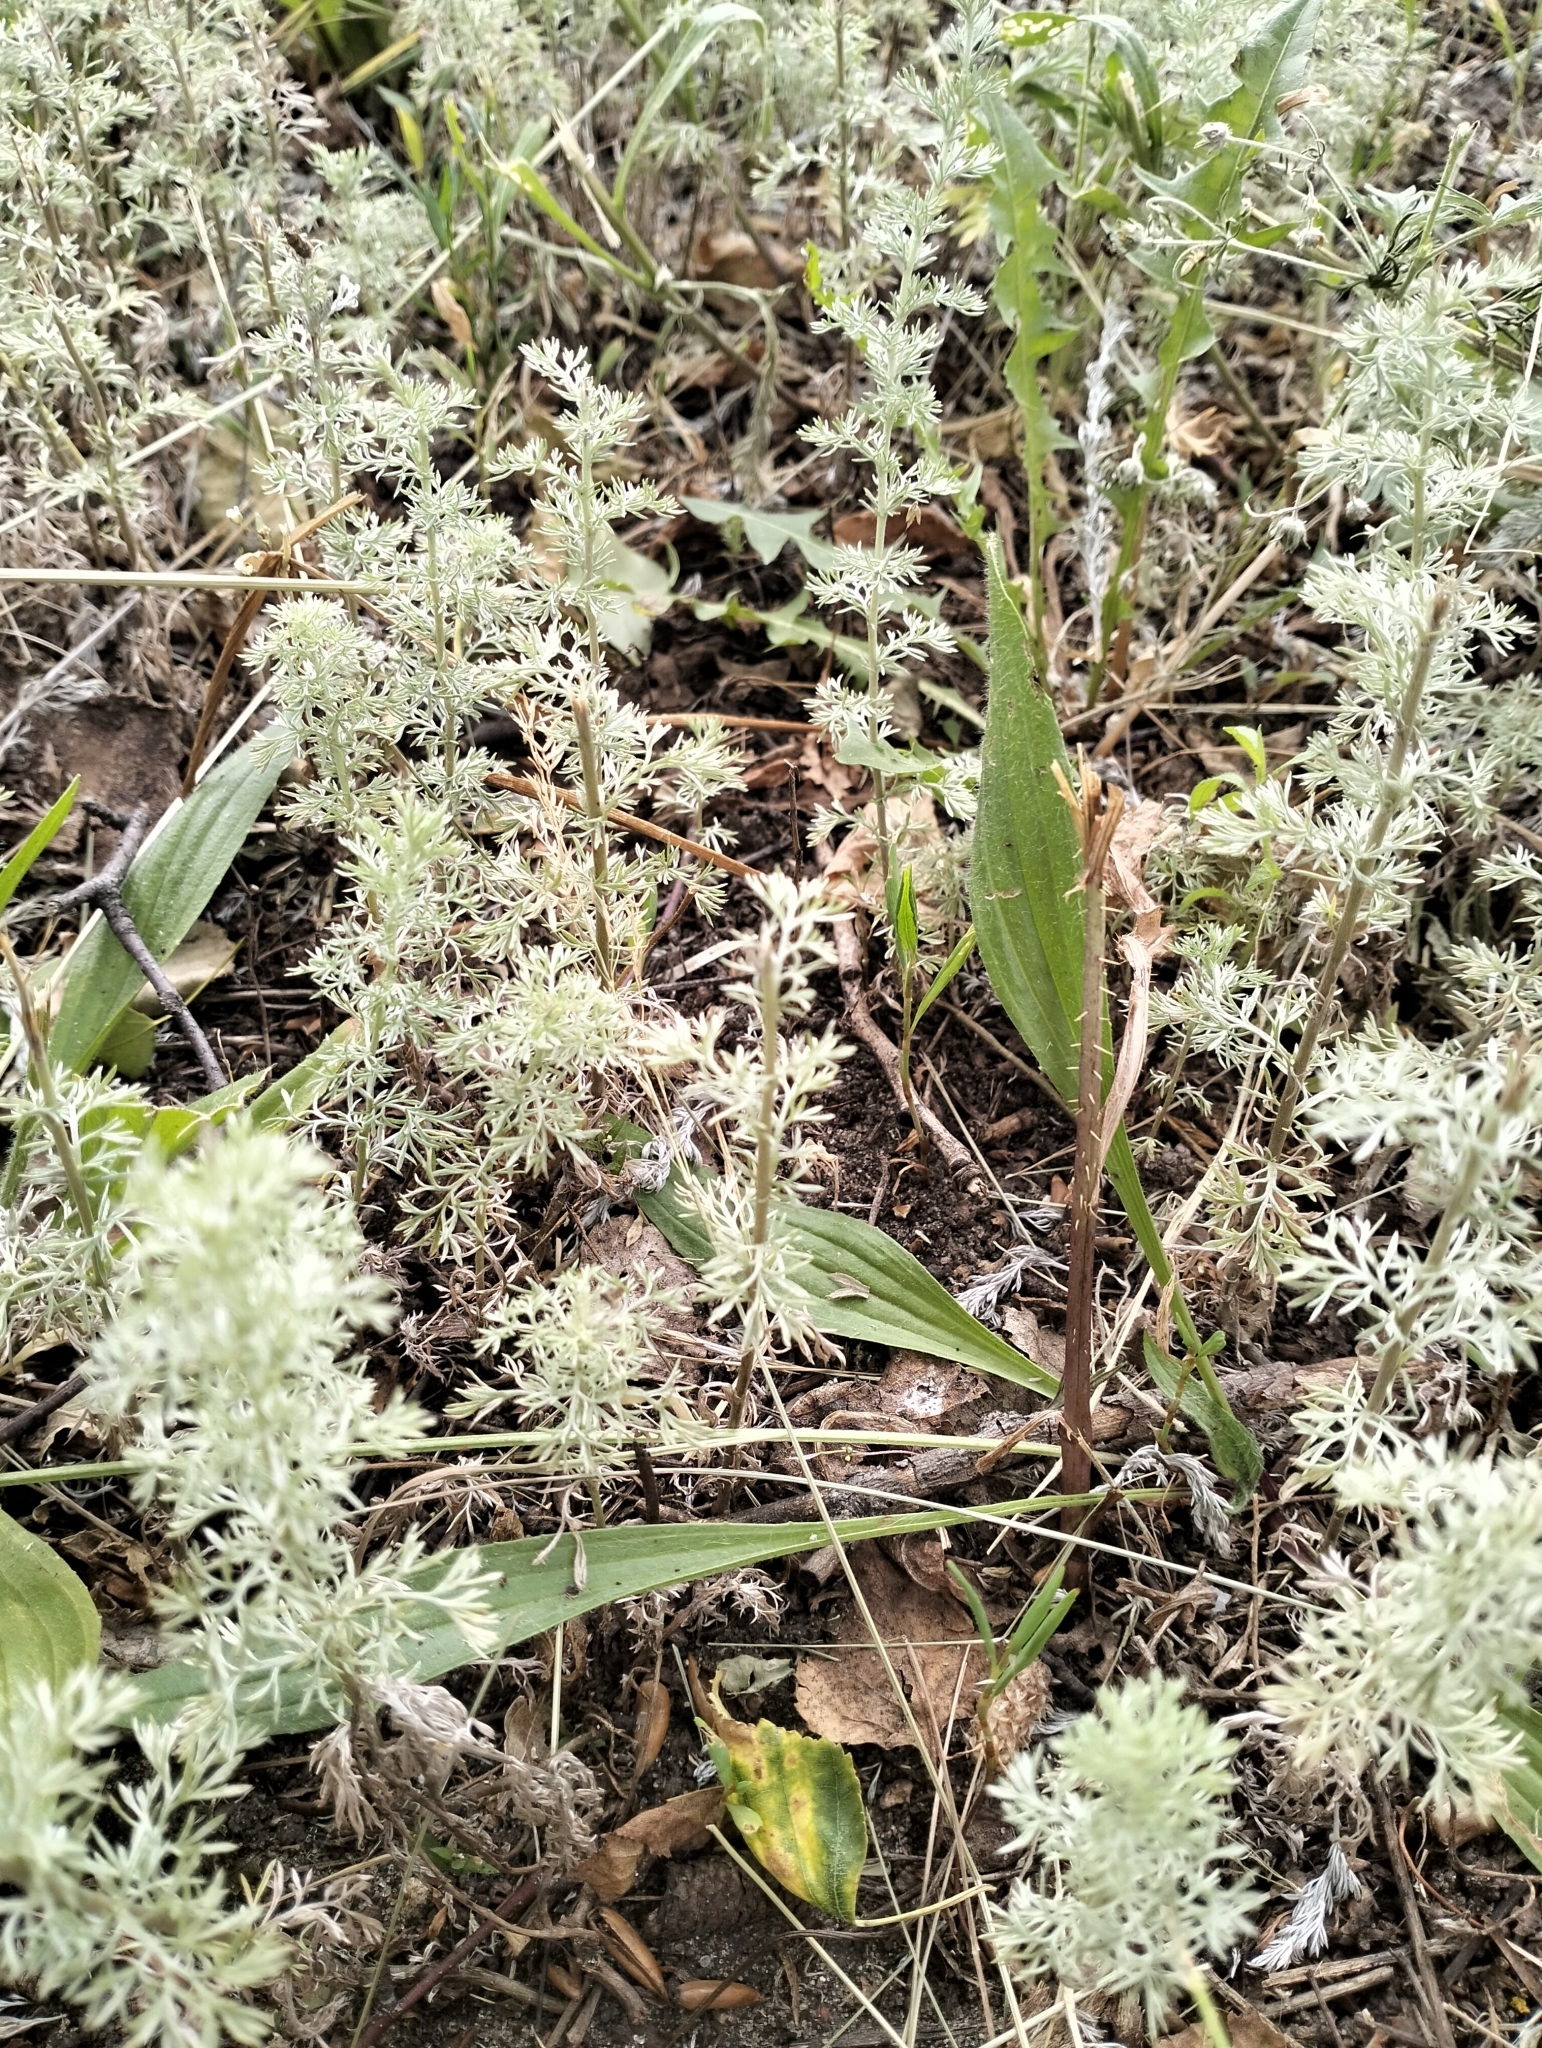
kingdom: Plantae
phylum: Tracheophyta
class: Magnoliopsida
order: Asterales
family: Asteraceae
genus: Artemisia
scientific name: Artemisia austriaca
